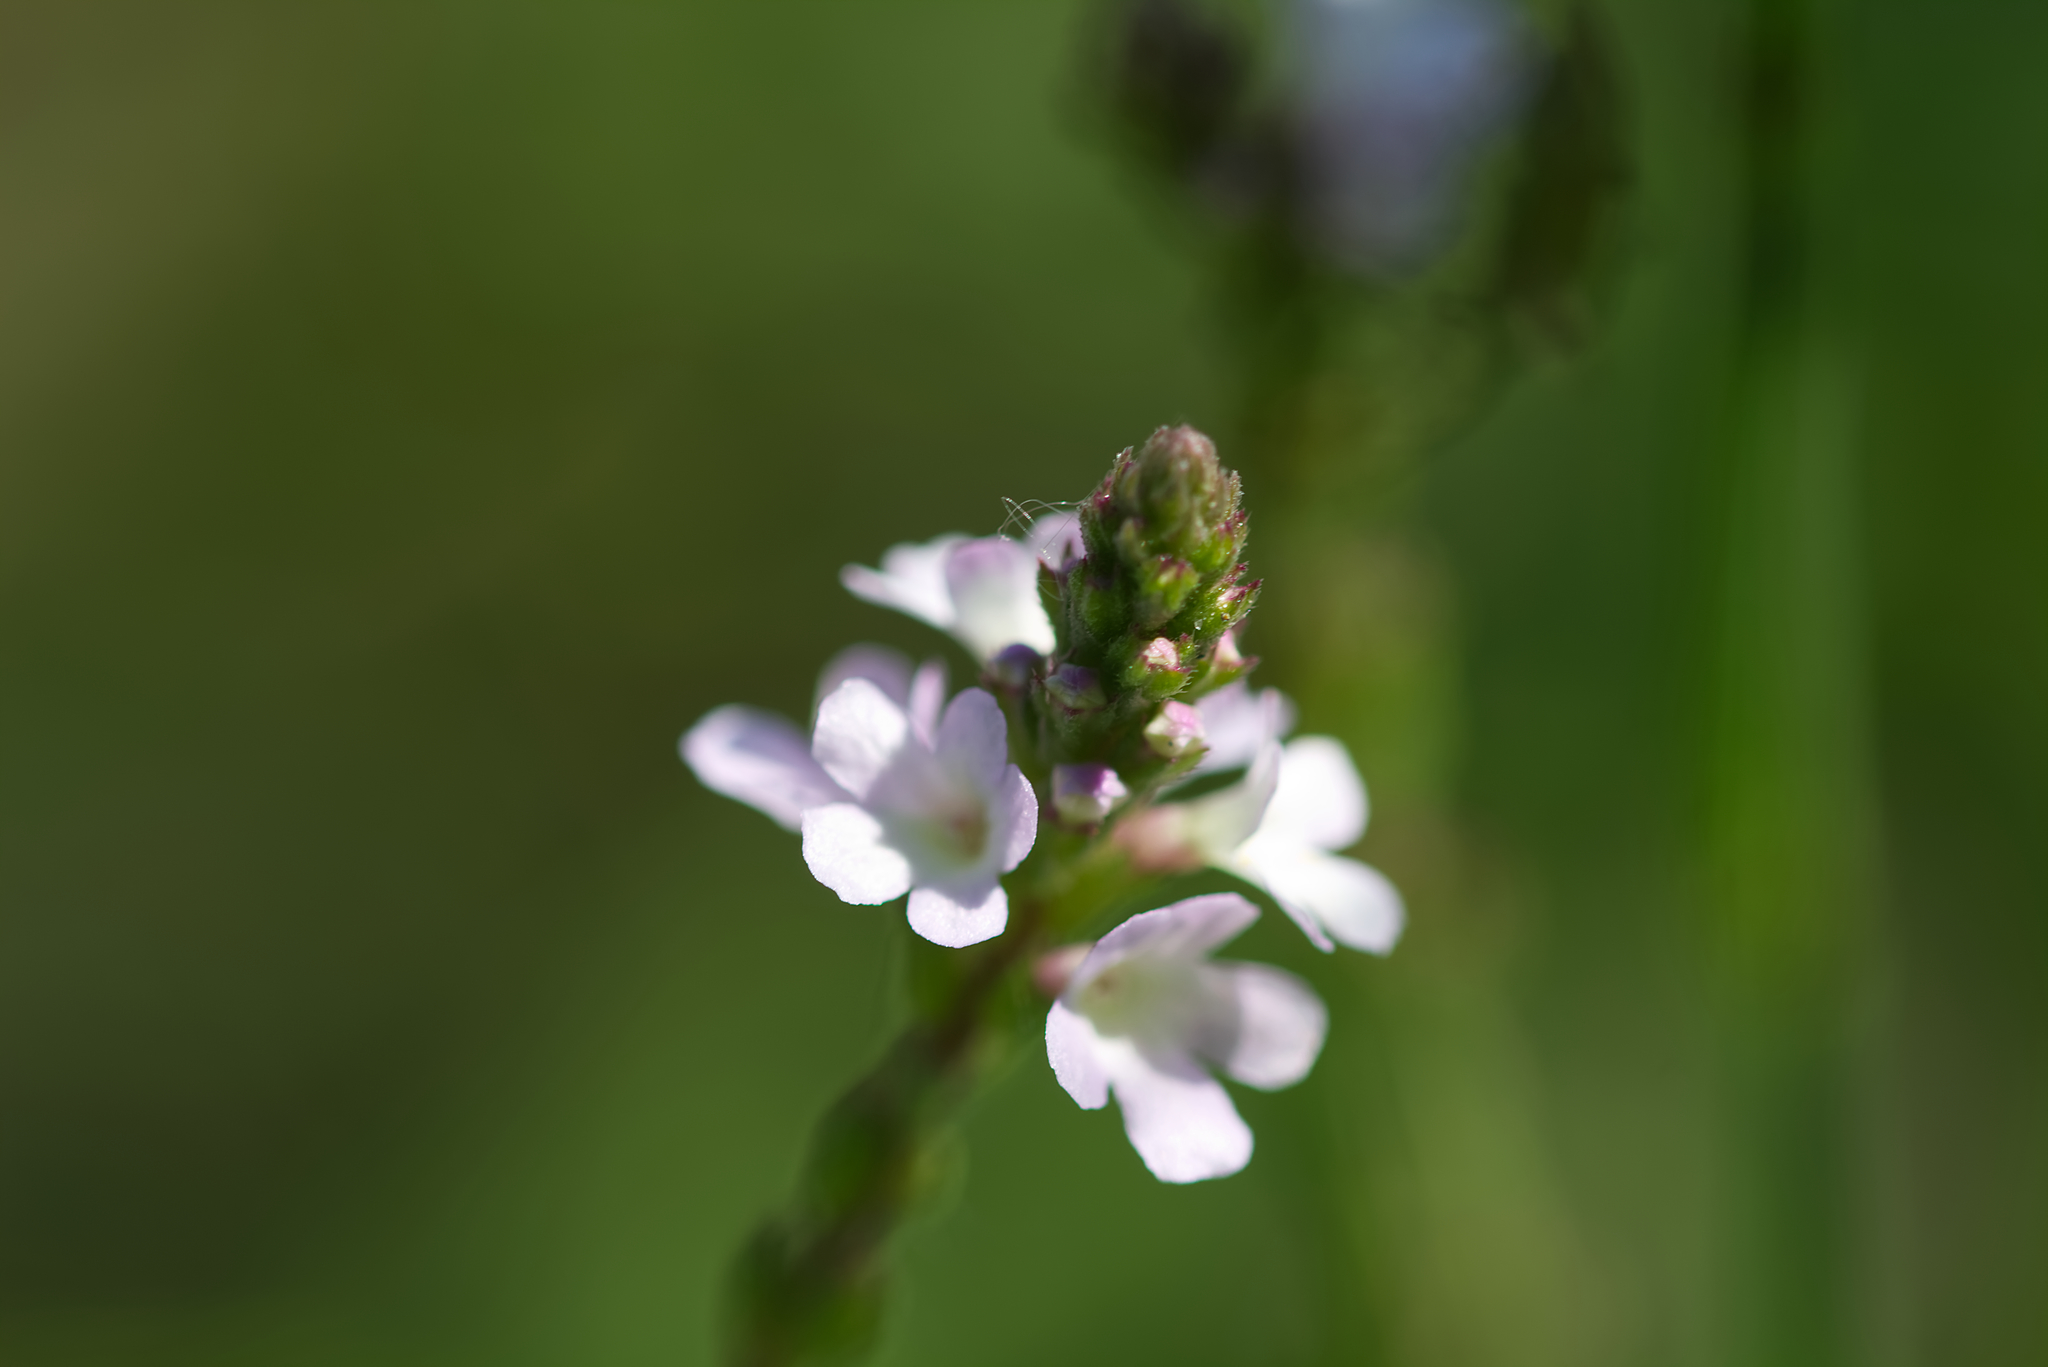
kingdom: Plantae
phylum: Tracheophyta
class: Magnoliopsida
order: Lamiales
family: Verbenaceae
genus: Verbena
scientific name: Verbena officinalis
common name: Vervain
